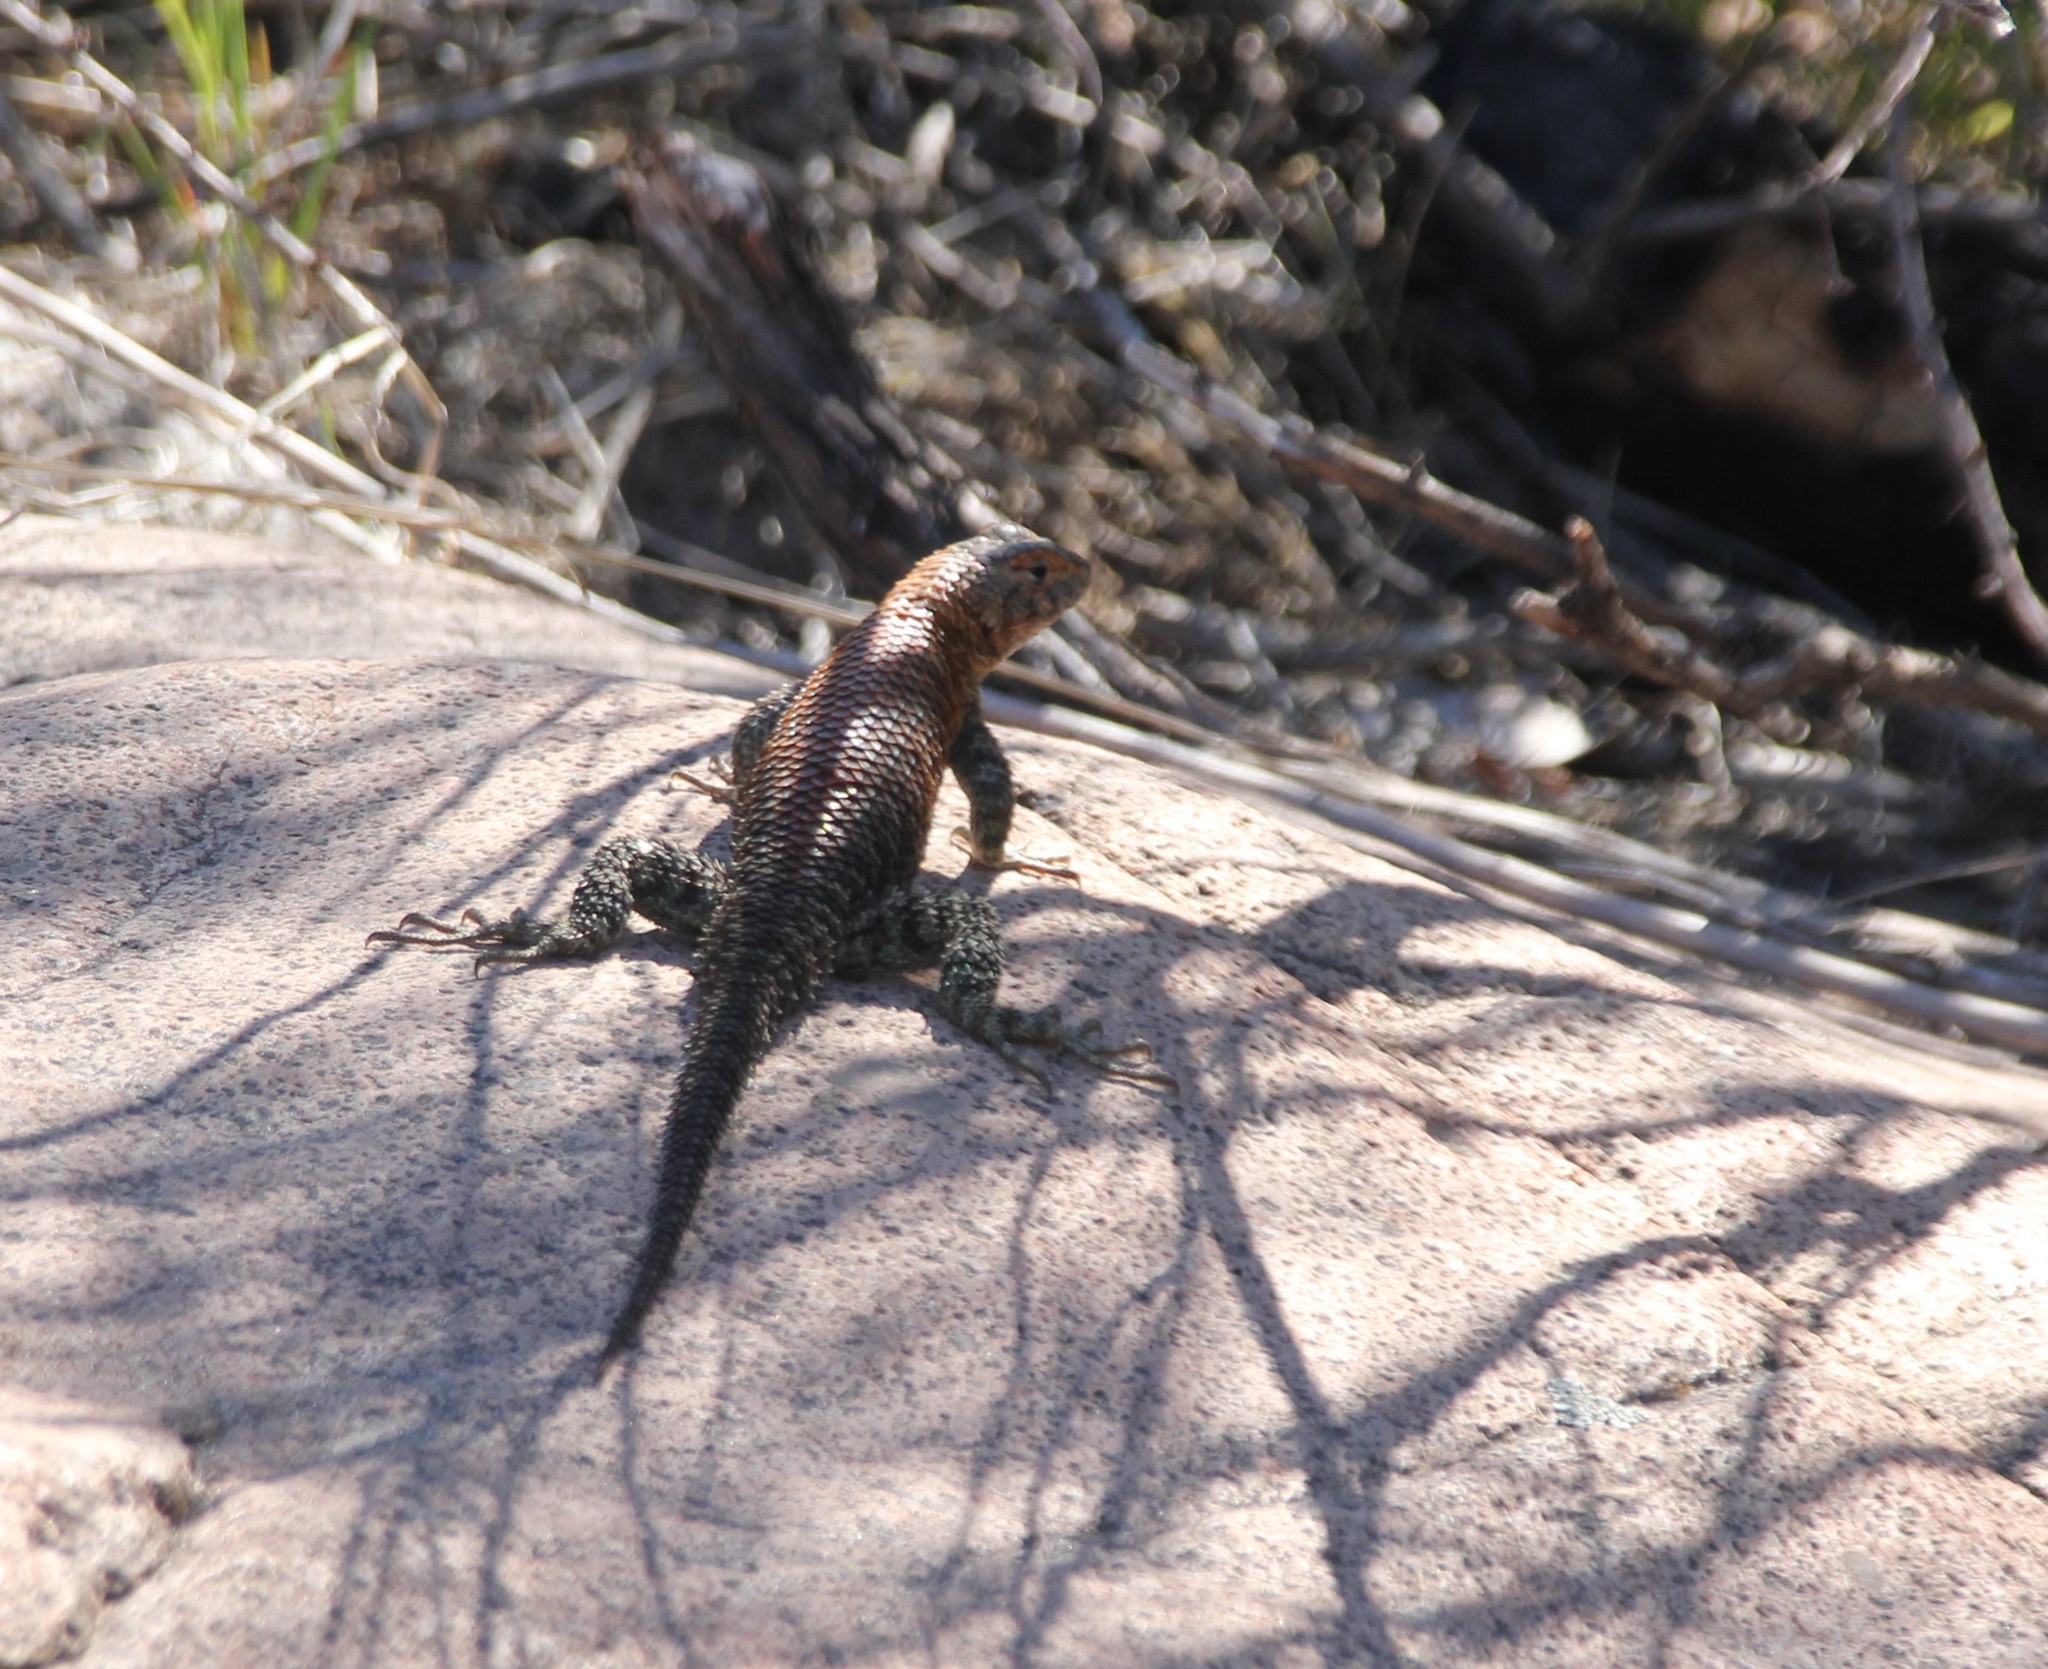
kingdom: Animalia
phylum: Chordata
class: Squamata
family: Phrynosomatidae
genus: Sceloporus
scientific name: Sceloporus orcutti
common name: Granite spiny lizard
